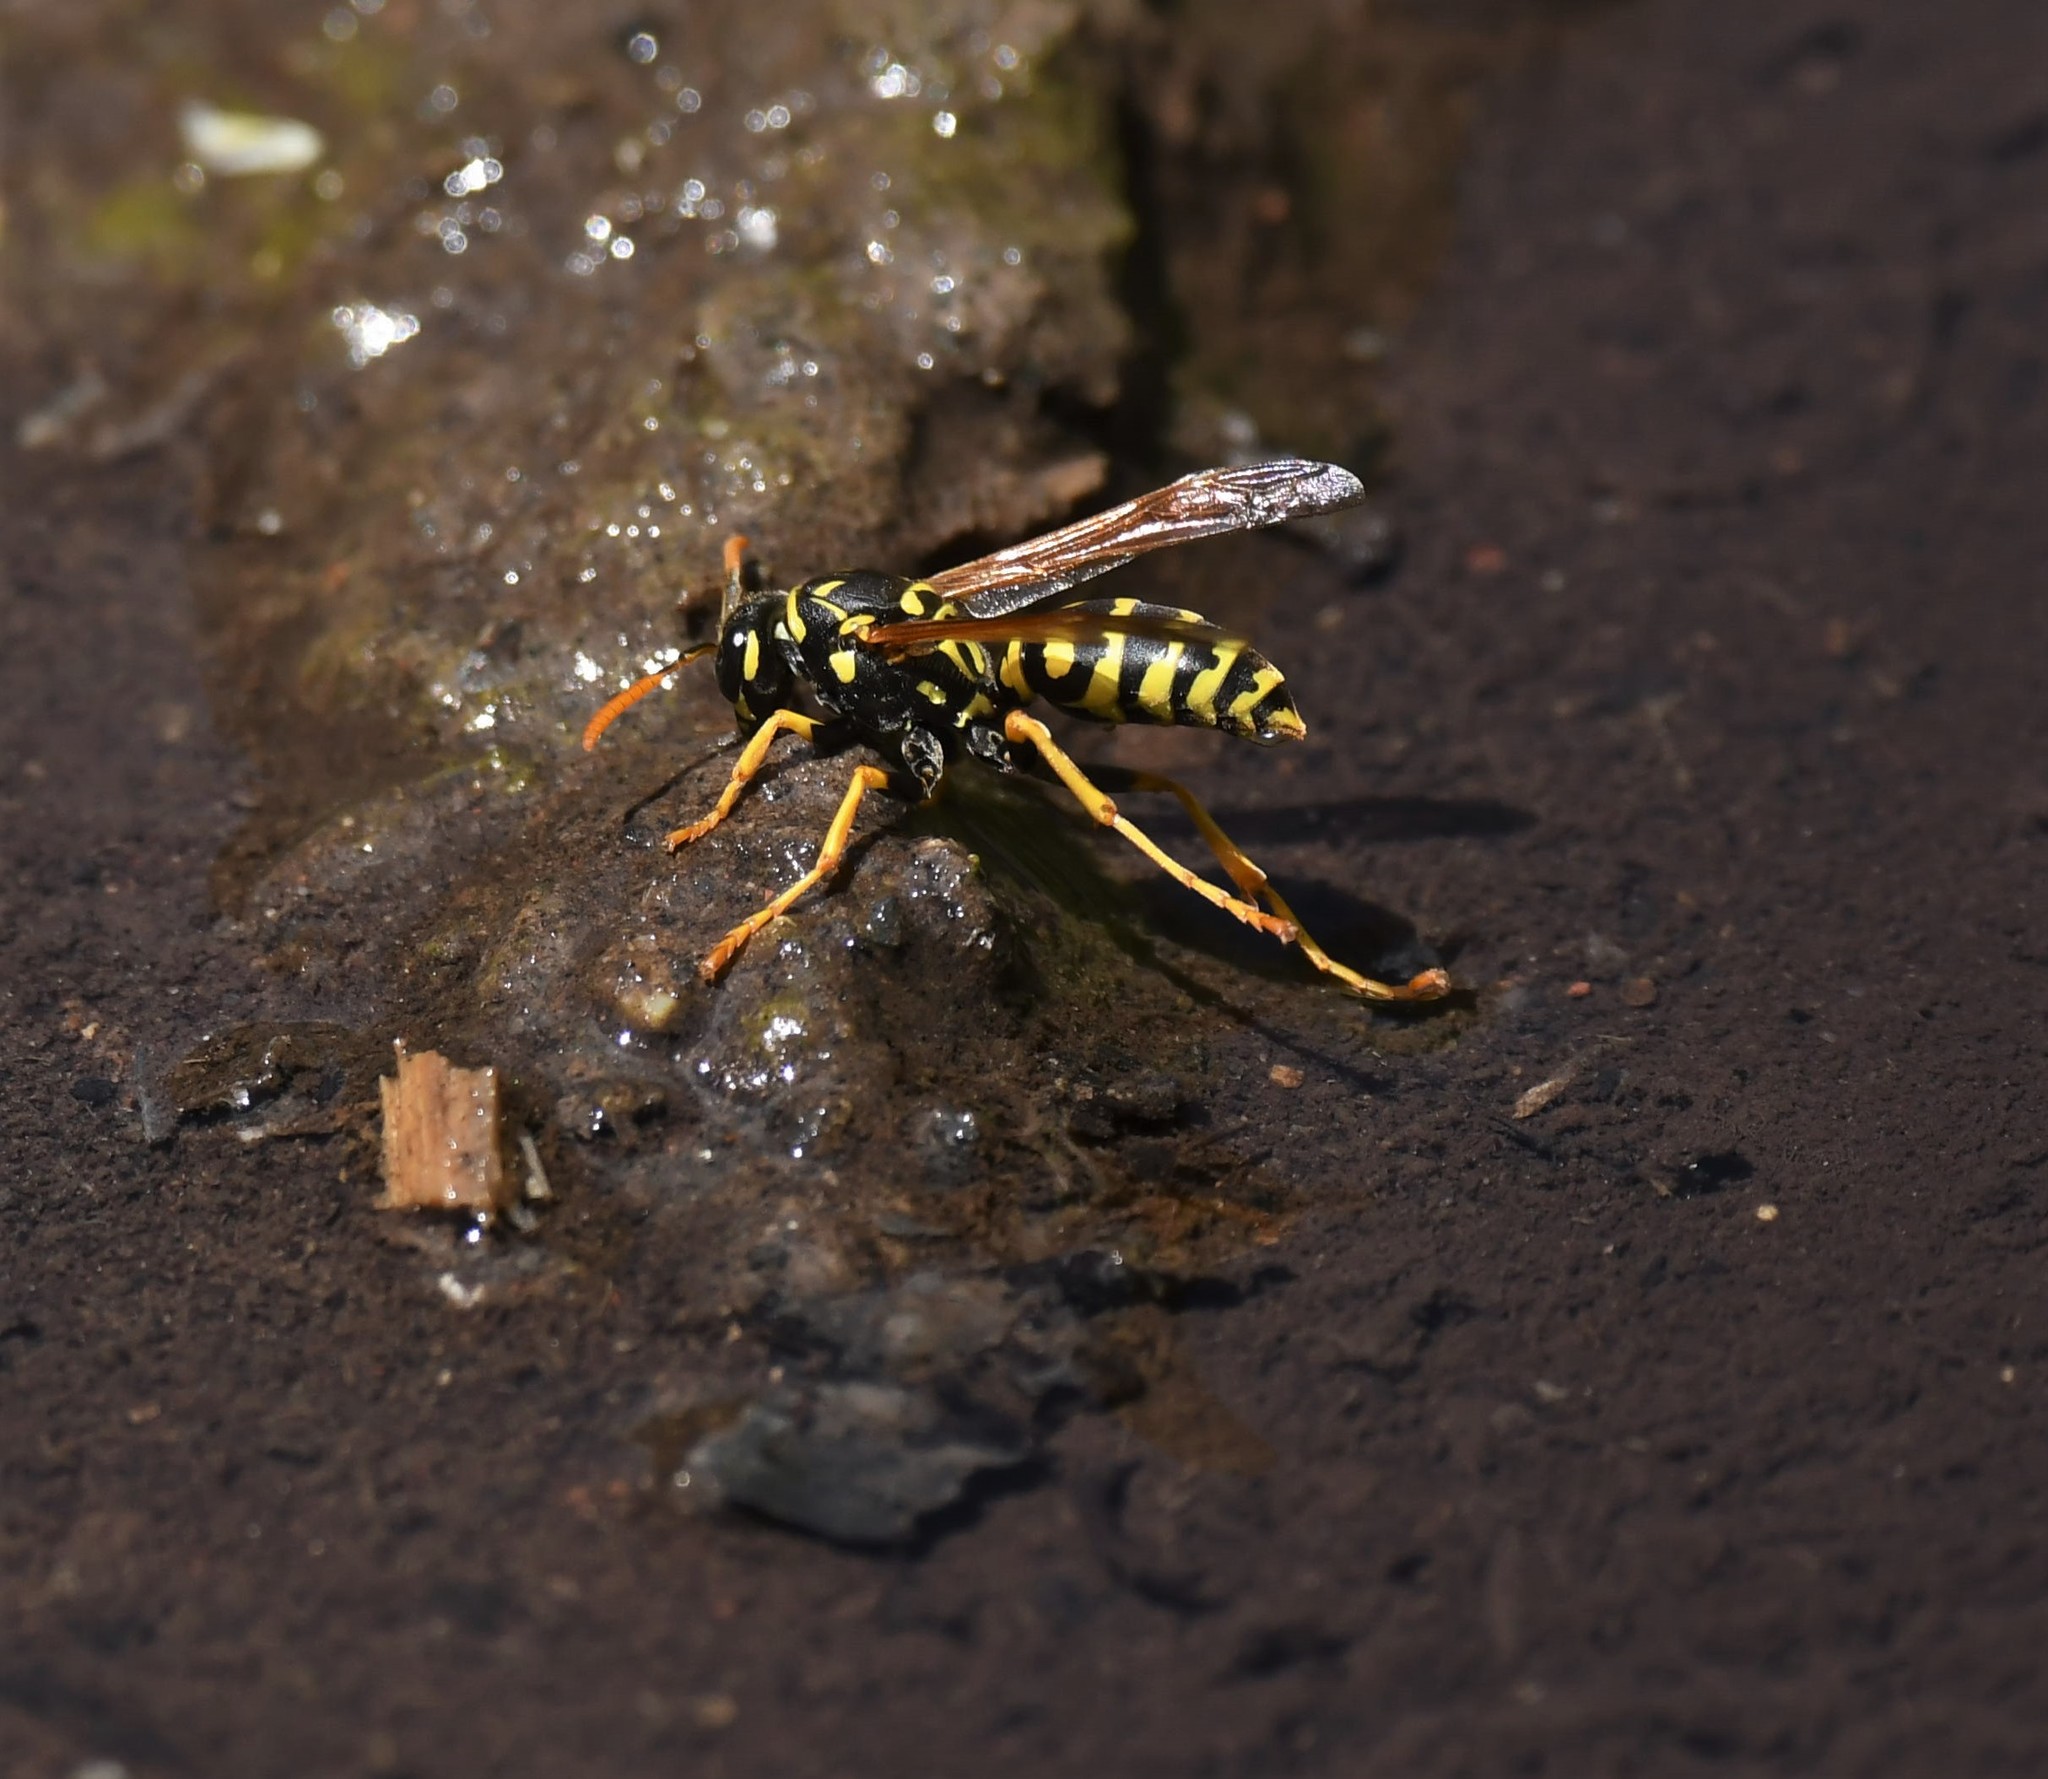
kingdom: Animalia
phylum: Arthropoda
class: Insecta
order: Hymenoptera
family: Eumenidae
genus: Polistes
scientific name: Polistes dominula
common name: Paper wasp
